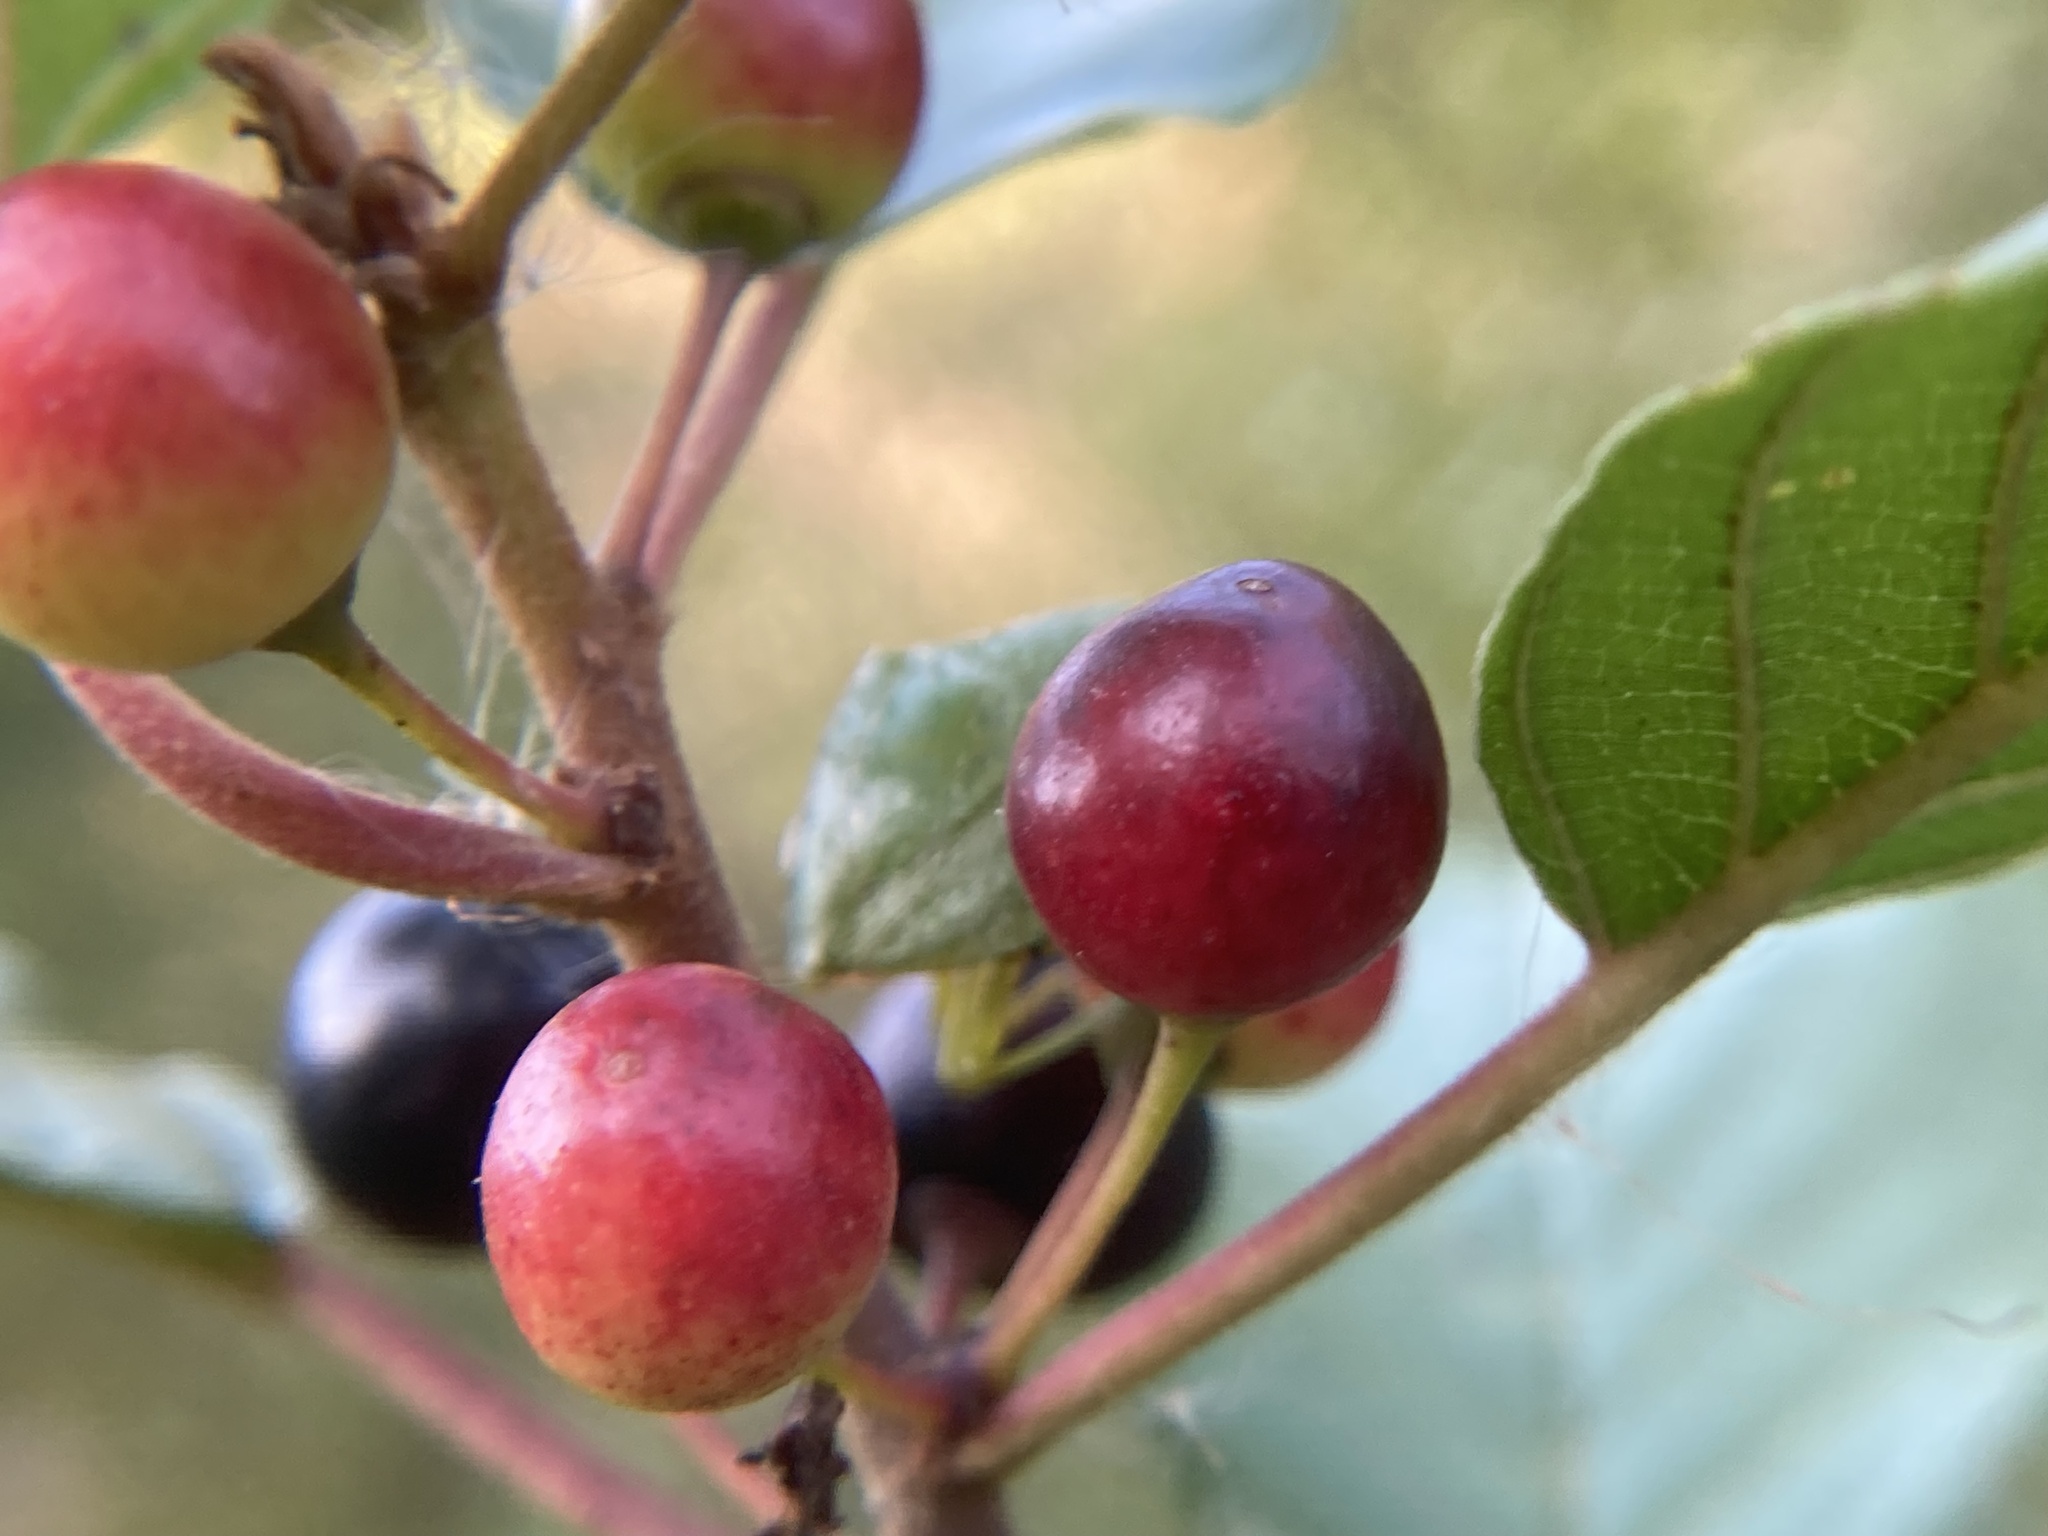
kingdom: Plantae
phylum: Tracheophyta
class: Magnoliopsida
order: Rosales
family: Rhamnaceae
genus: Frangula
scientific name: Frangula alnus
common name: Alder buckthorn
